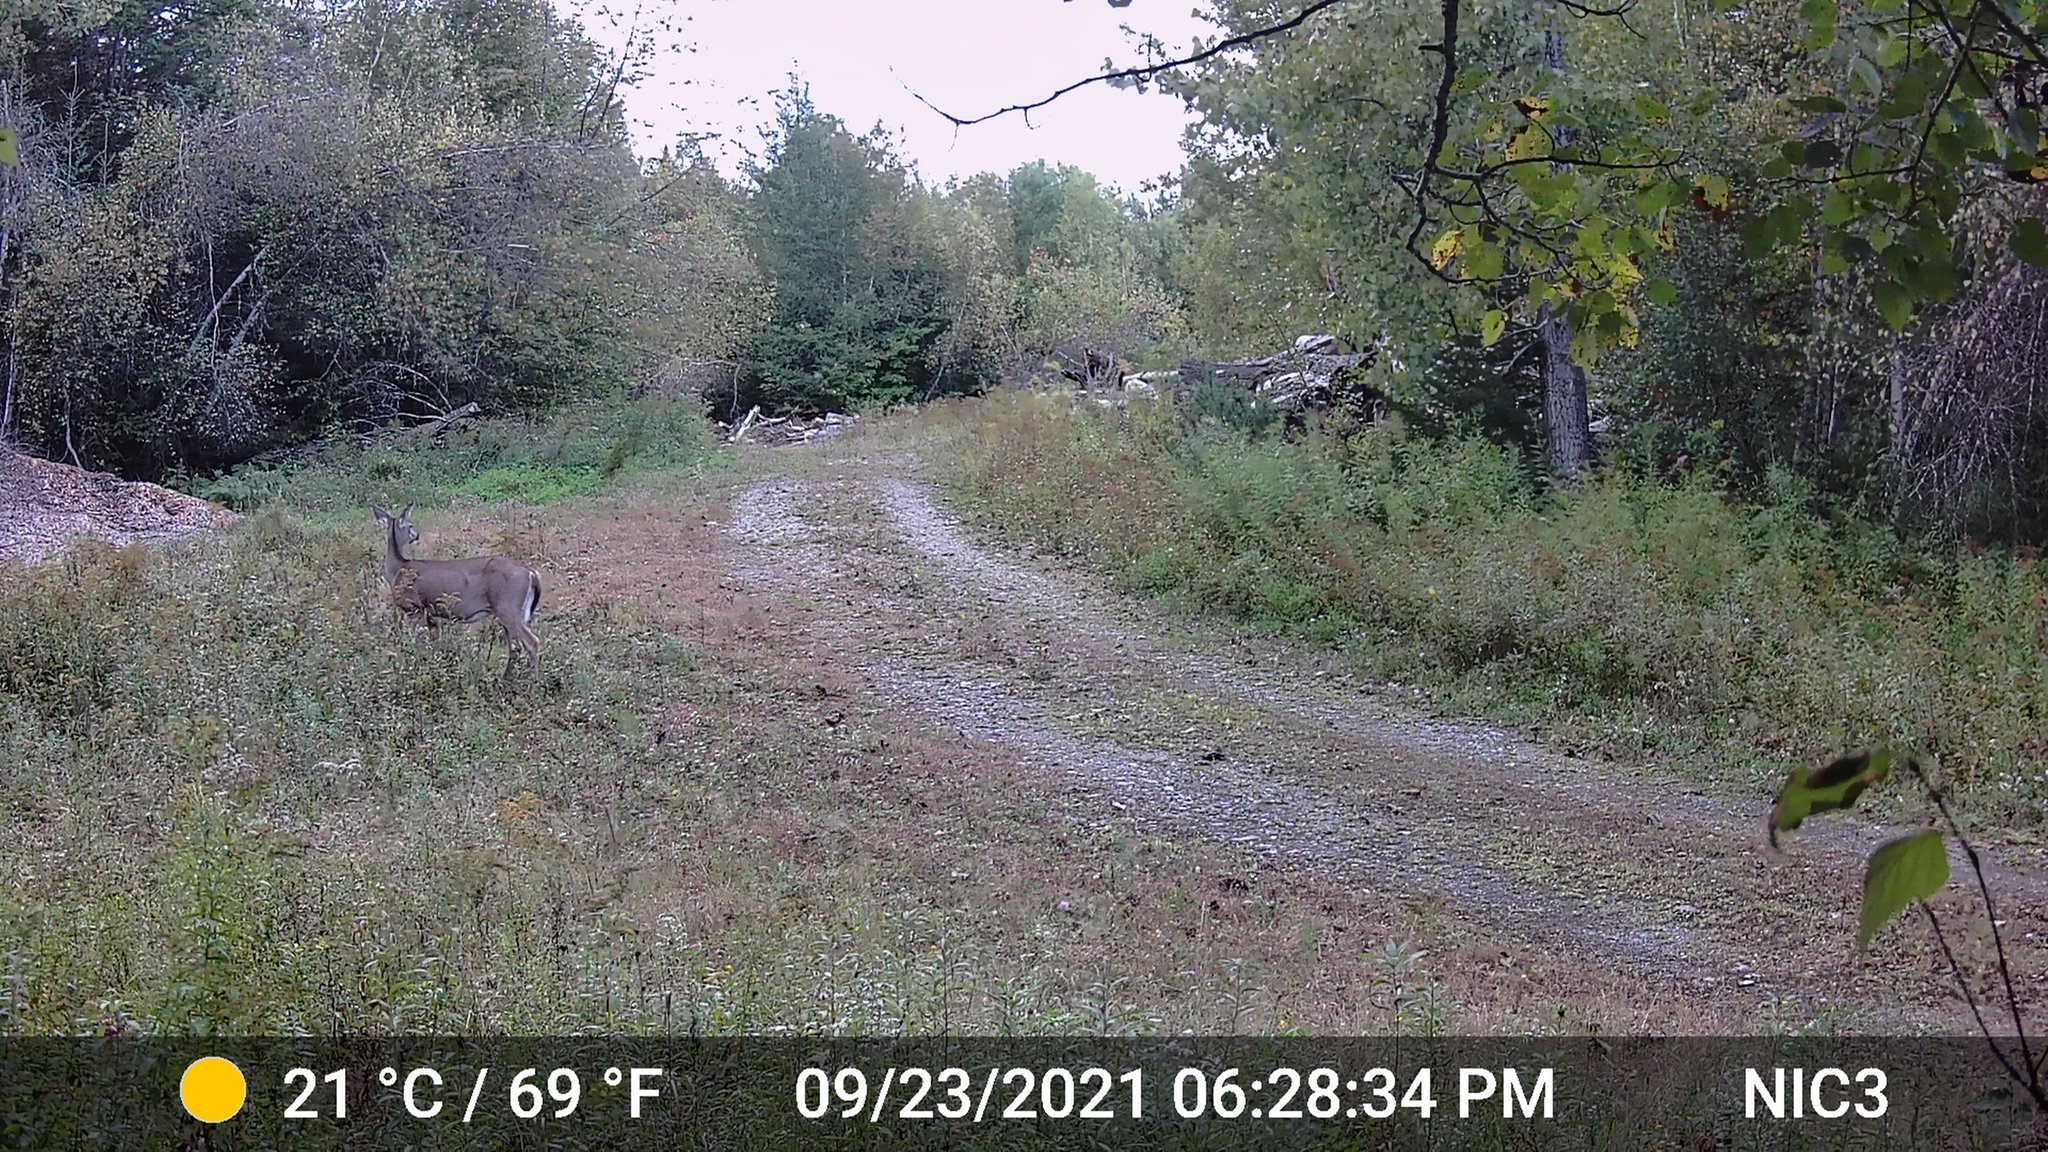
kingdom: Animalia
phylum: Chordata
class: Mammalia
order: Artiodactyla
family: Cervidae
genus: Odocoileus
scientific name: Odocoileus virginianus
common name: White-tailed deer
